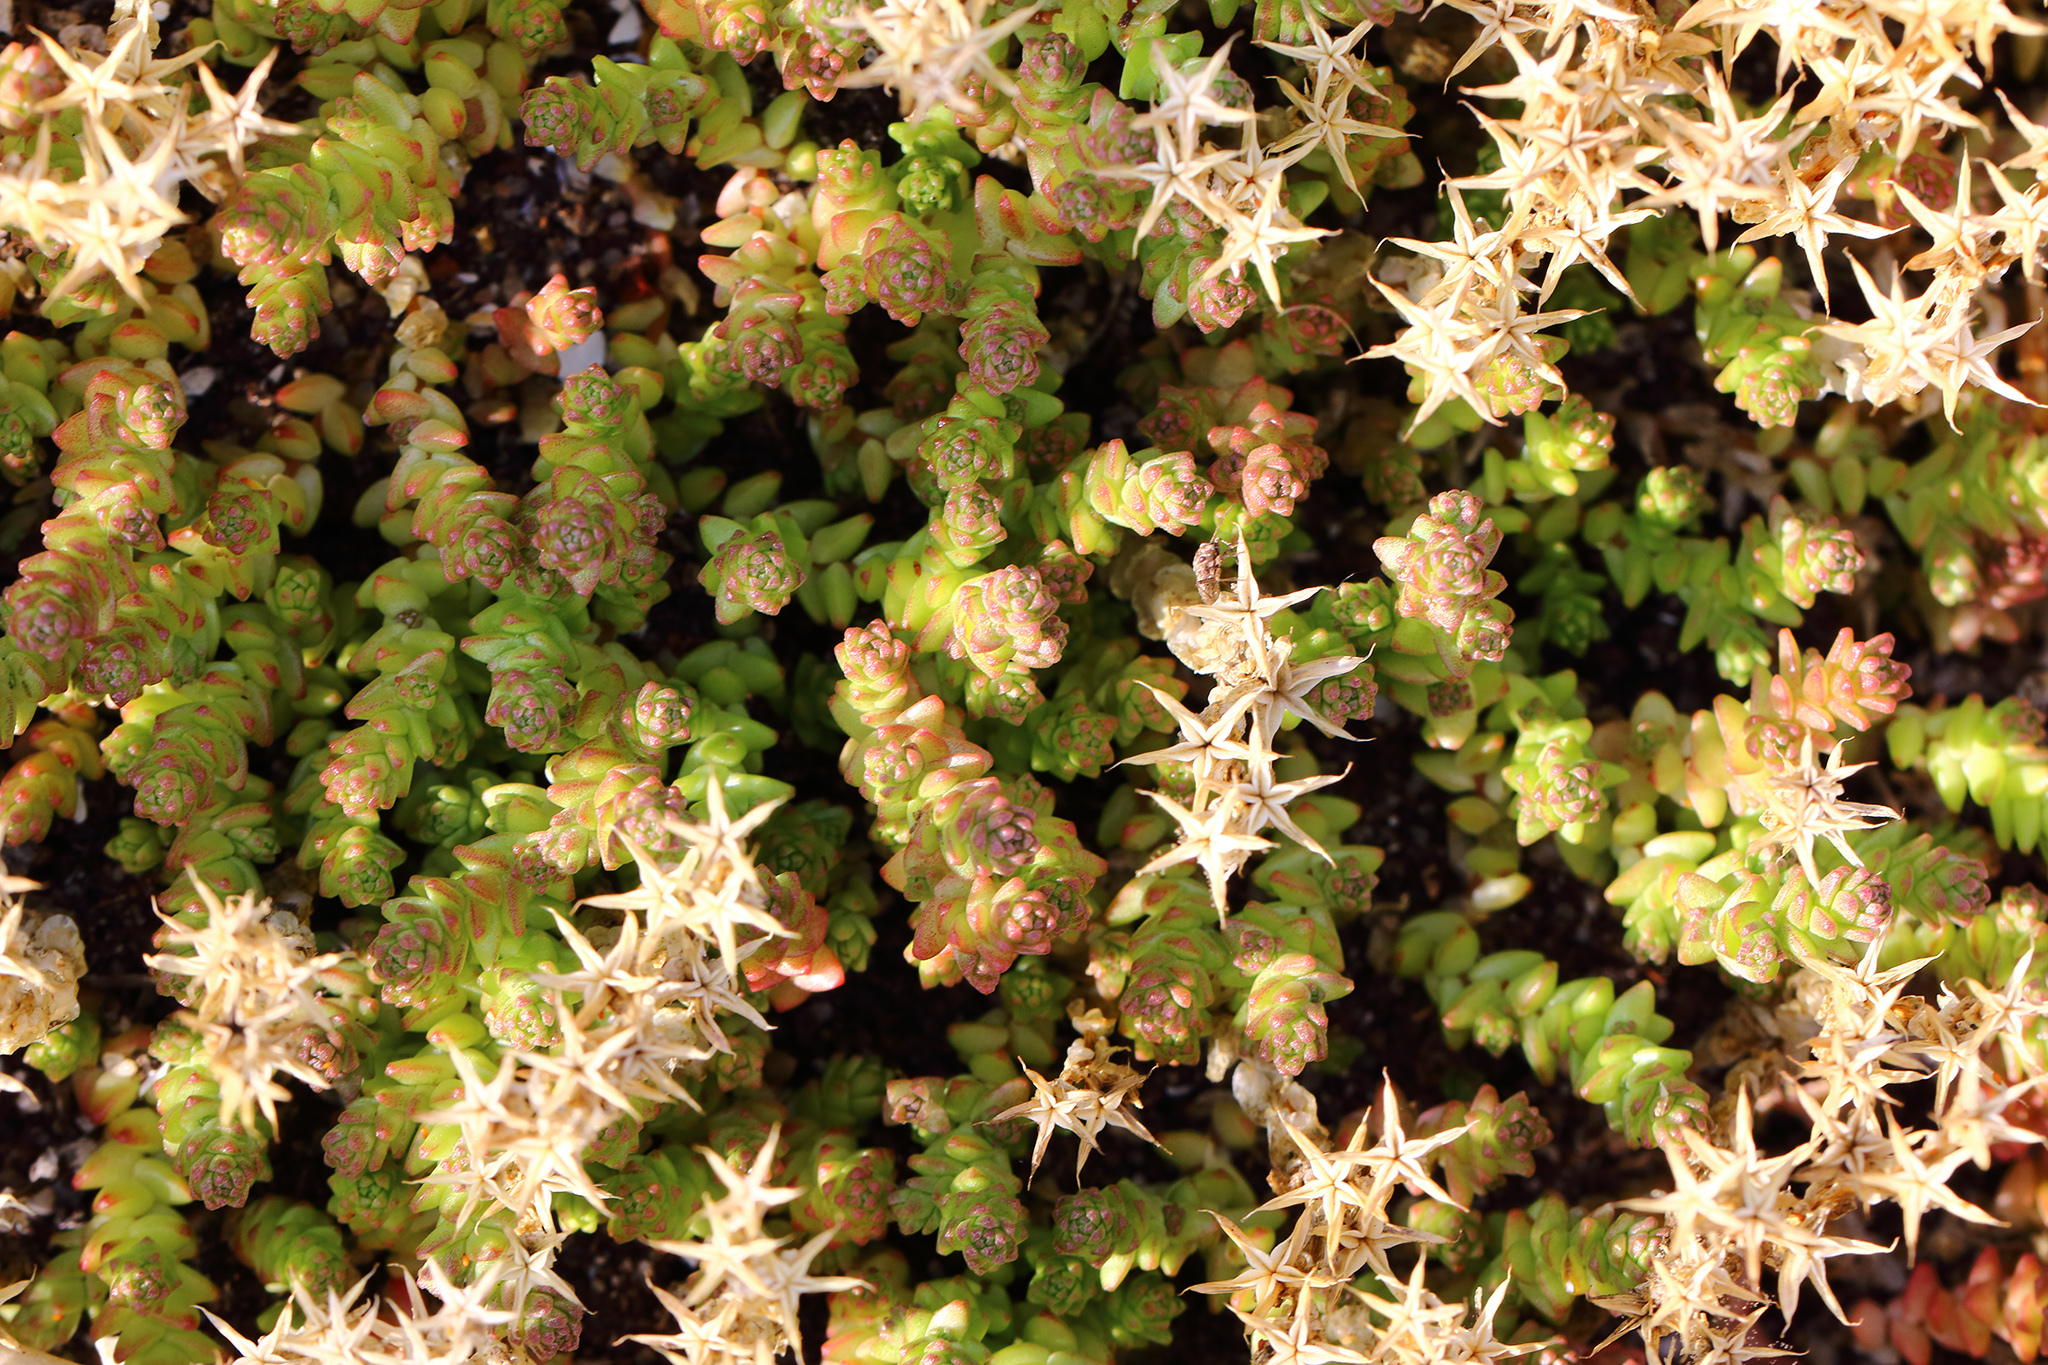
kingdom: Plantae
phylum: Tracheophyta
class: Magnoliopsida
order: Saxifragales
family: Crassulaceae
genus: Sedum
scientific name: Sedum acre
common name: Biting stonecrop
